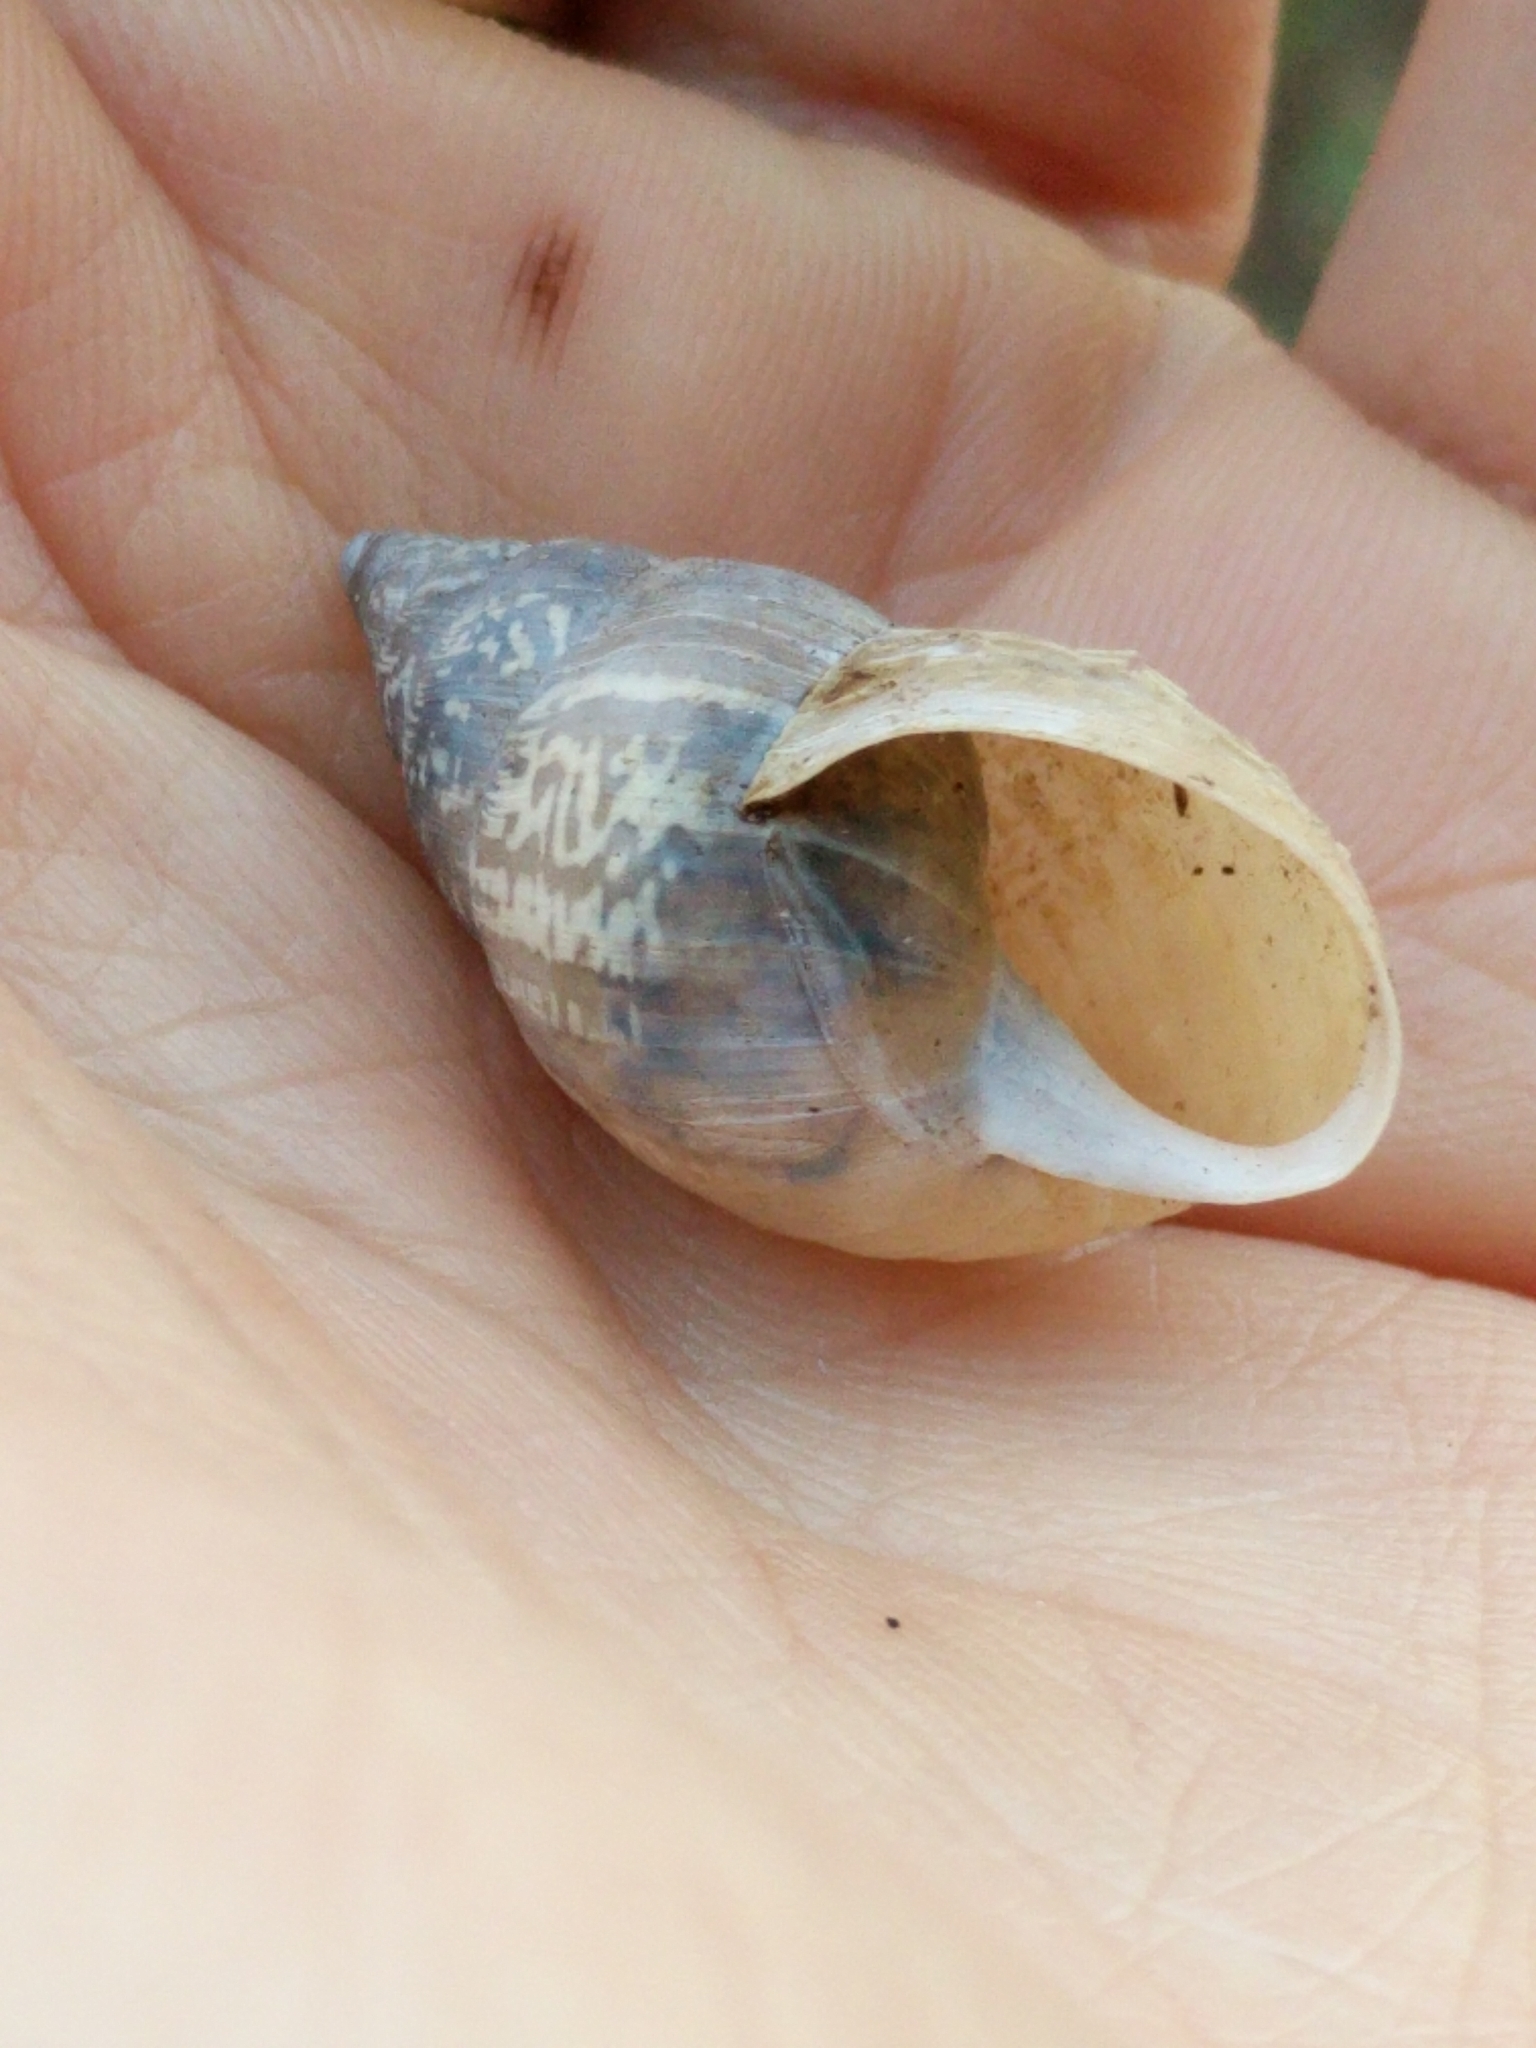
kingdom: Animalia
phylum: Mollusca
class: Gastropoda
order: Stylommatophora
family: Bulimulidae
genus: Rabdotus
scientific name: Rabdotus dealbatus
